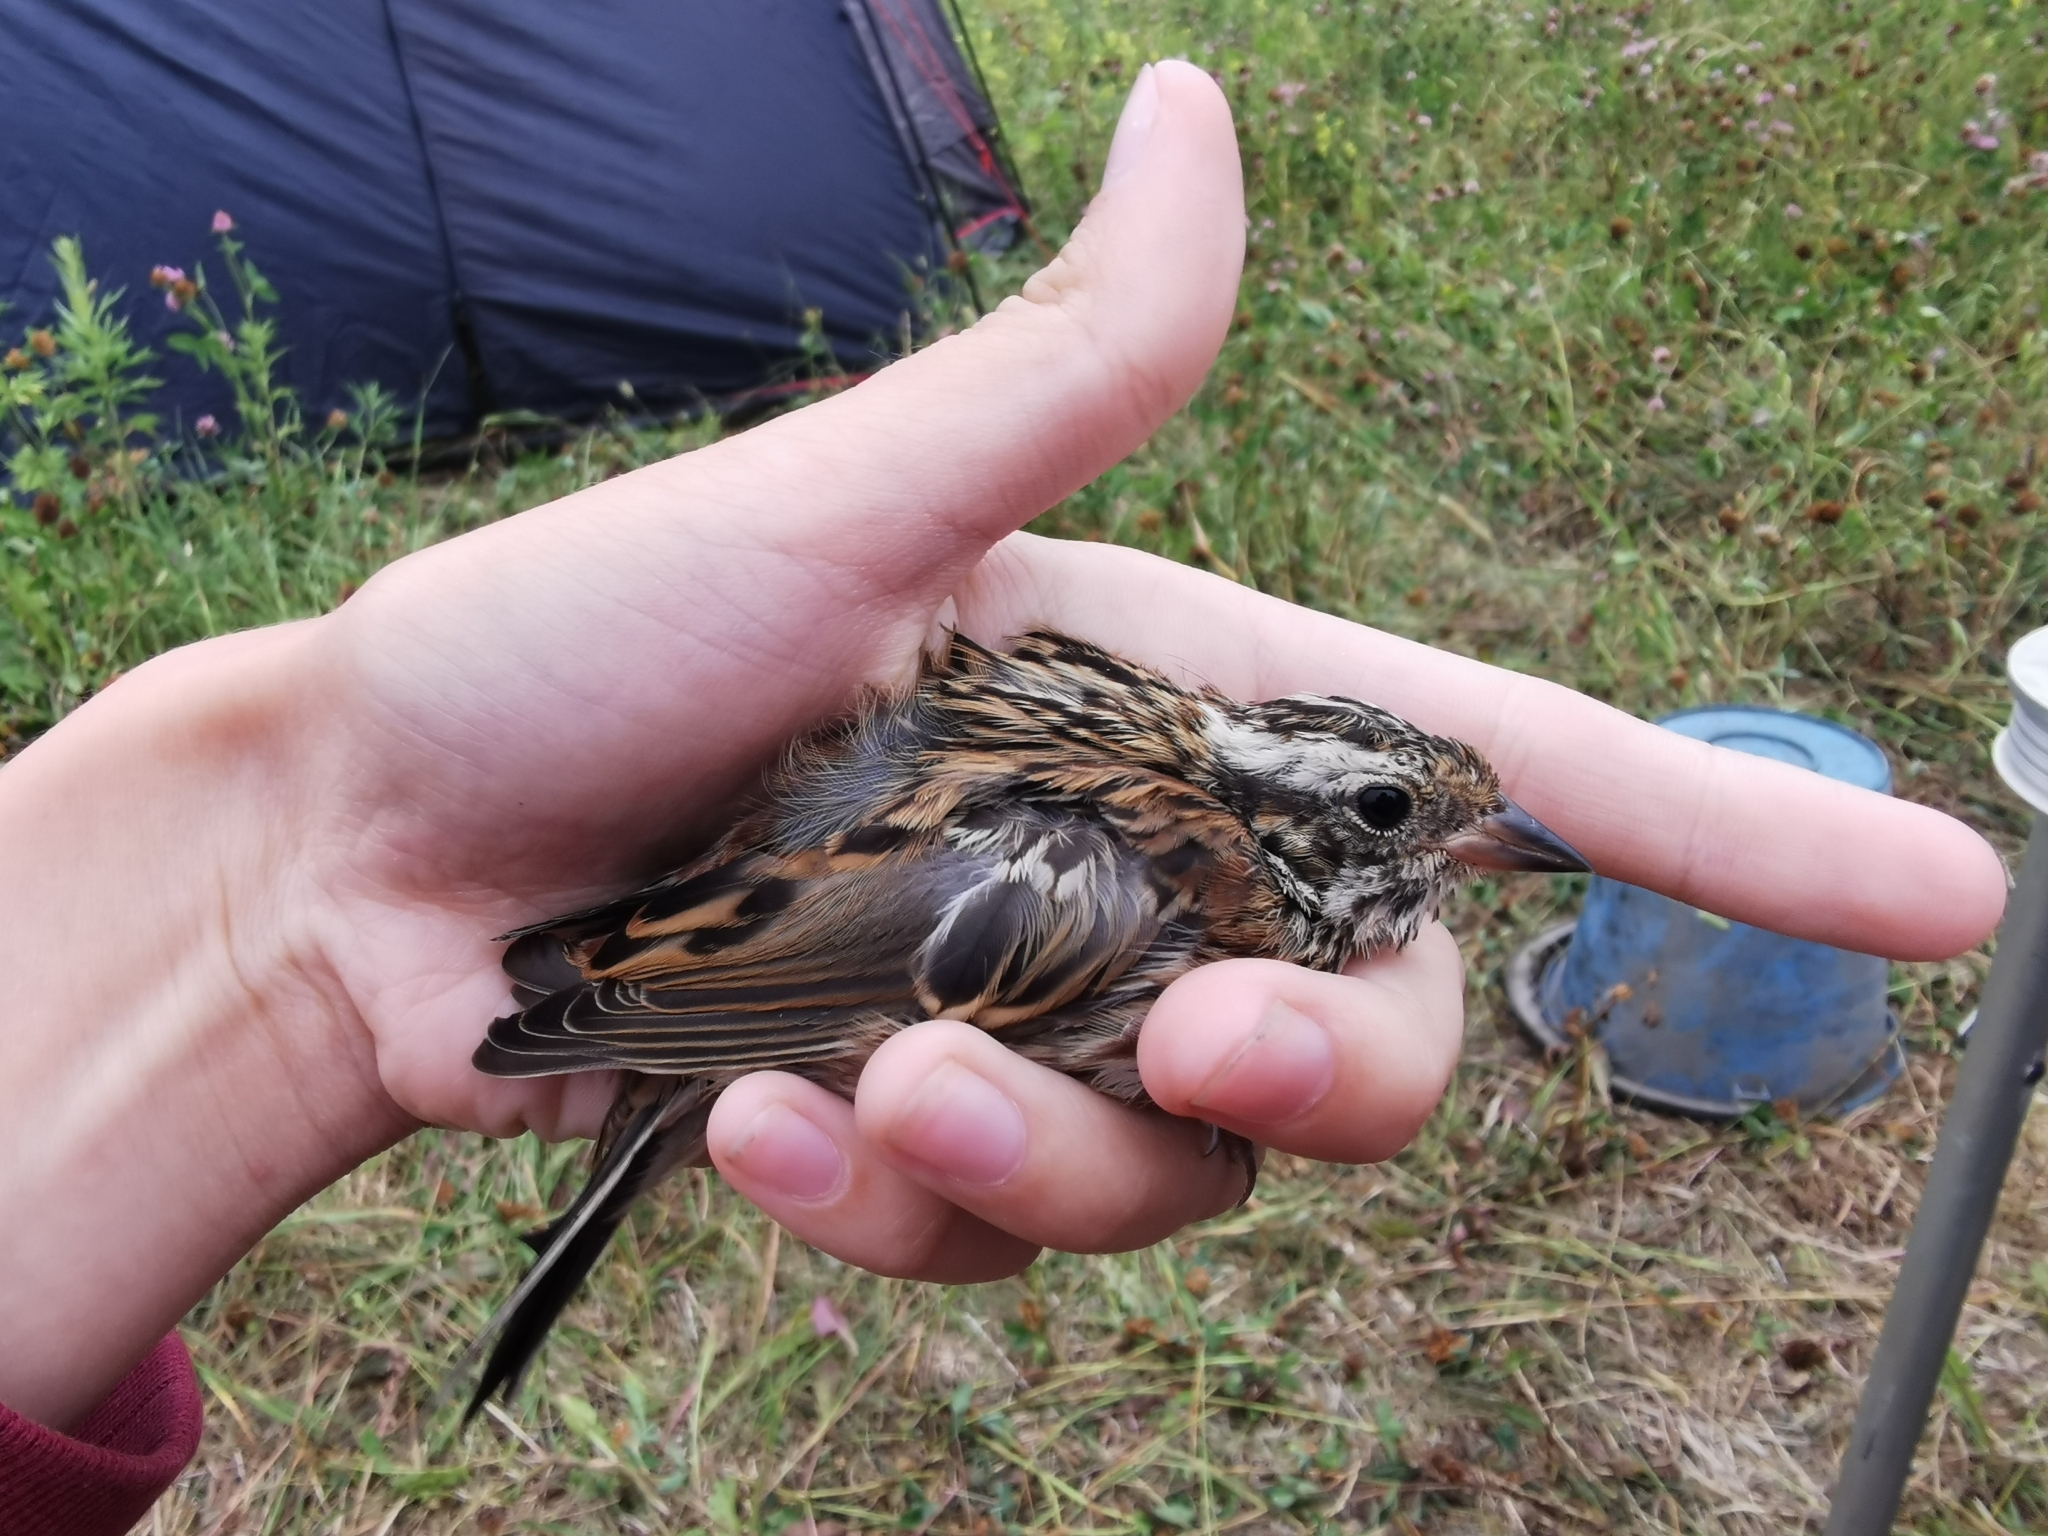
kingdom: Animalia
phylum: Chordata
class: Aves
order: Passeriformes
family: Emberizidae
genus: Emberiza
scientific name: Emberiza rustica
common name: Rustic bunting
